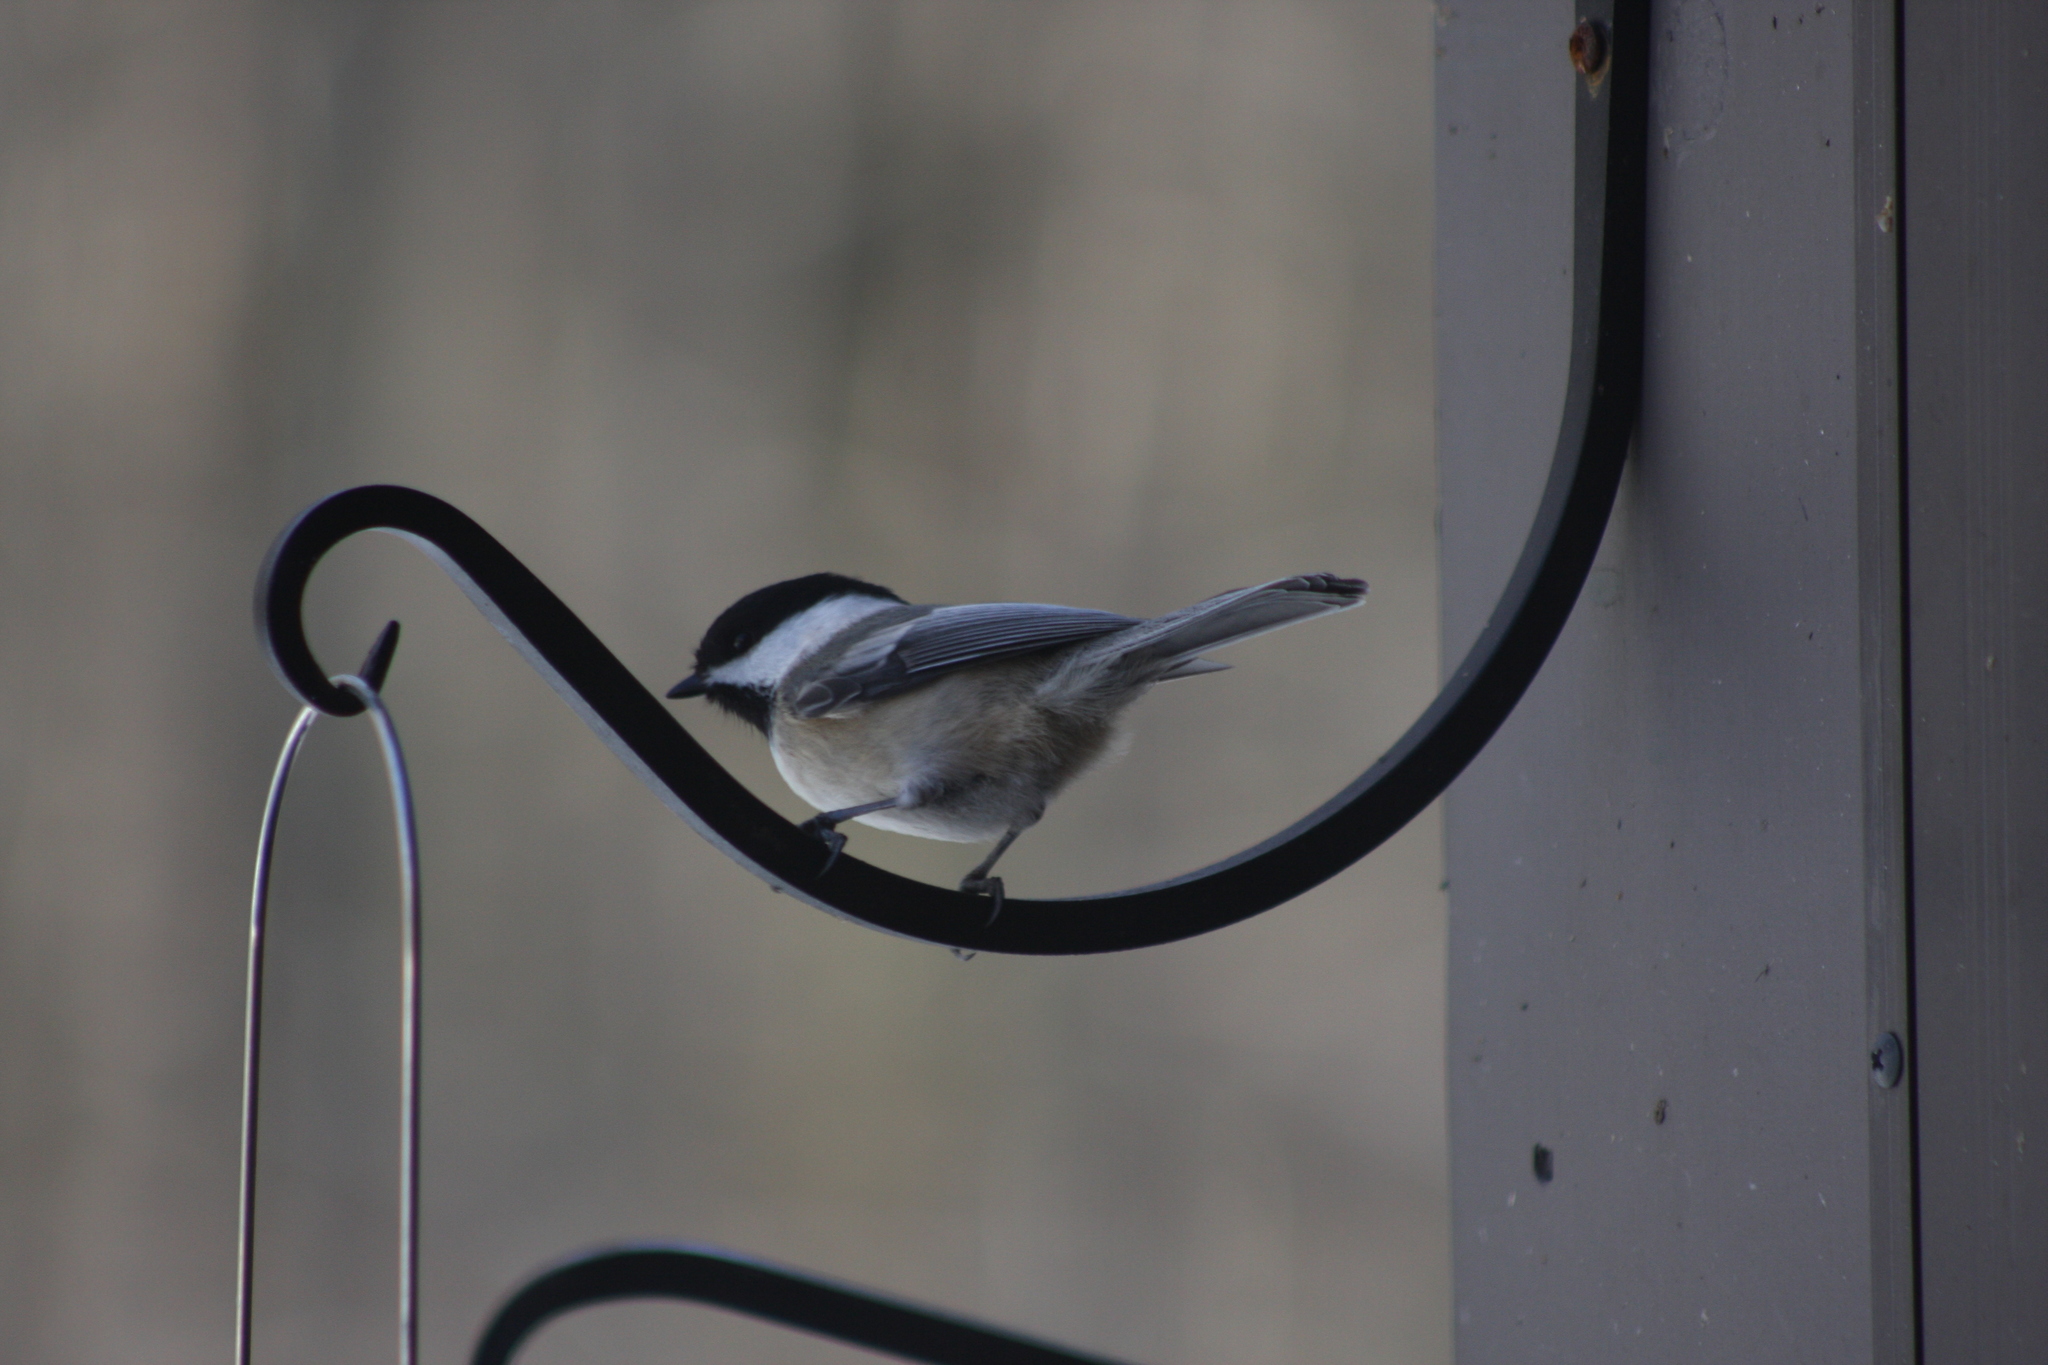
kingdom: Animalia
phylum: Chordata
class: Aves
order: Passeriformes
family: Paridae
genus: Poecile
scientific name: Poecile atricapillus
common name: Black-capped chickadee
